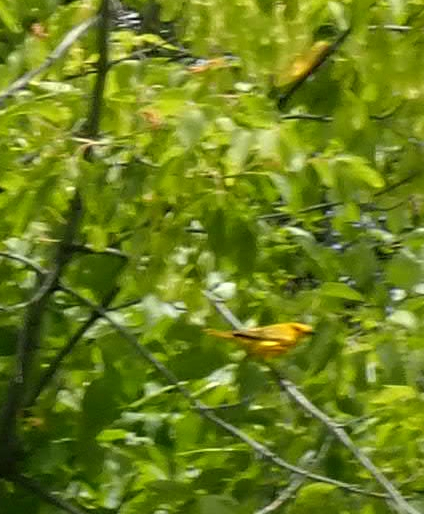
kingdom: Animalia
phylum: Chordata
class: Aves
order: Passeriformes
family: Parulidae
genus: Setophaga
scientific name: Setophaga petechia
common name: Yellow warbler
